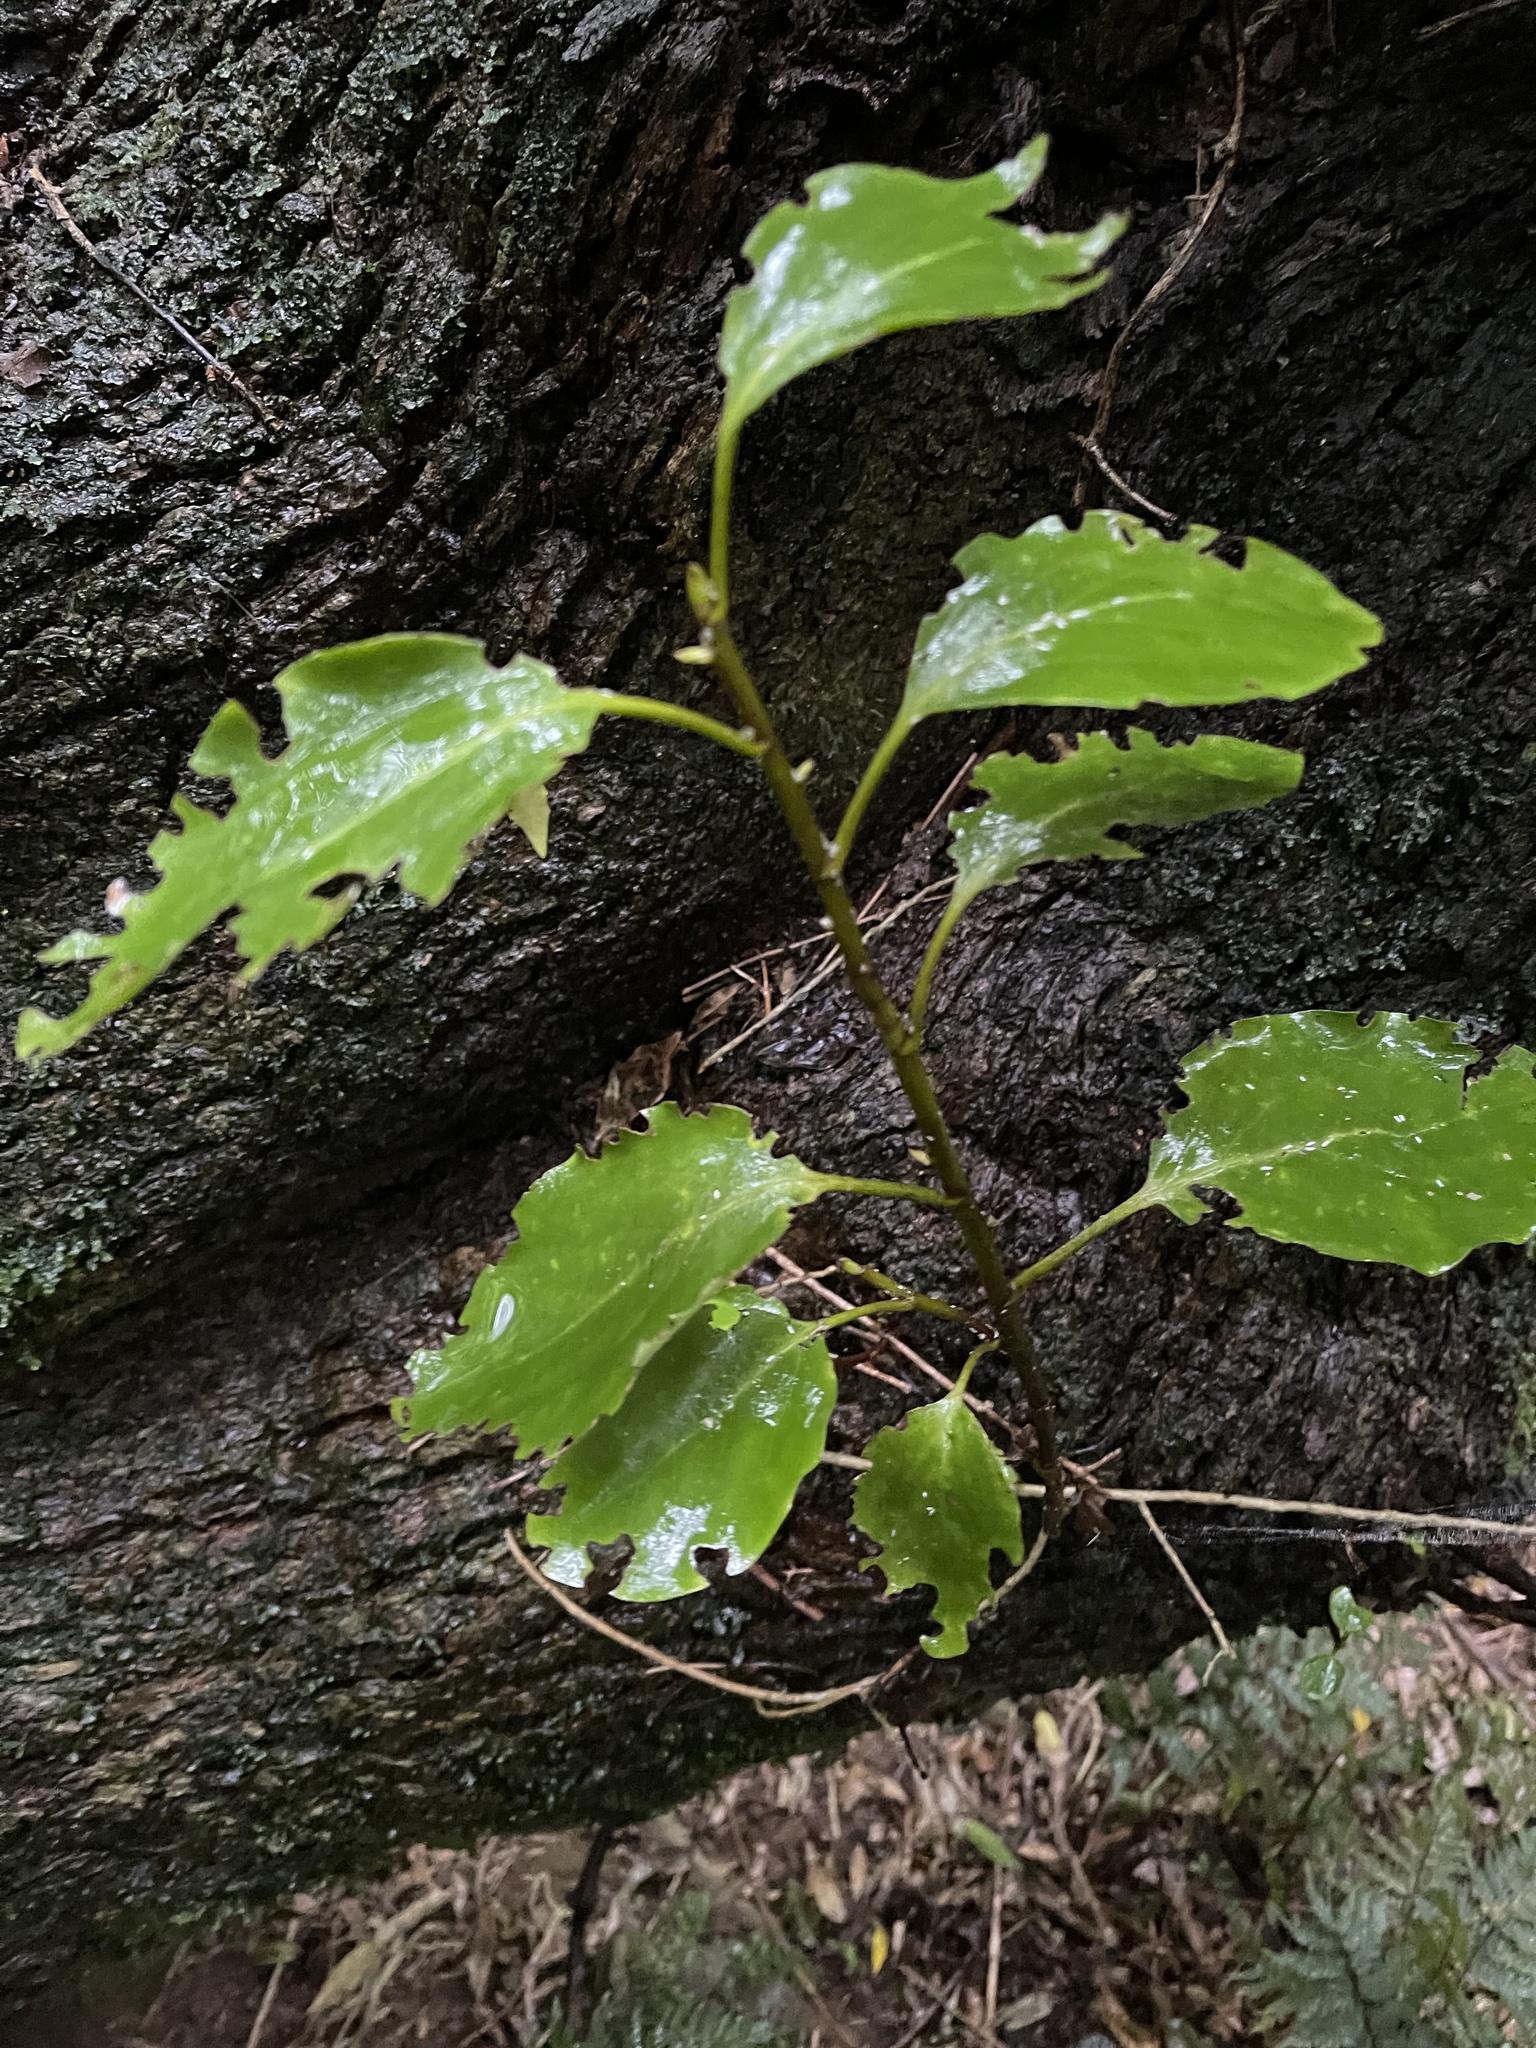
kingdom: Plantae
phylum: Tracheophyta
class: Magnoliopsida
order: Apiales
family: Griseliniaceae
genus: Griselinia
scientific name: Griselinia littoralis
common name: New zealand broadleaf
